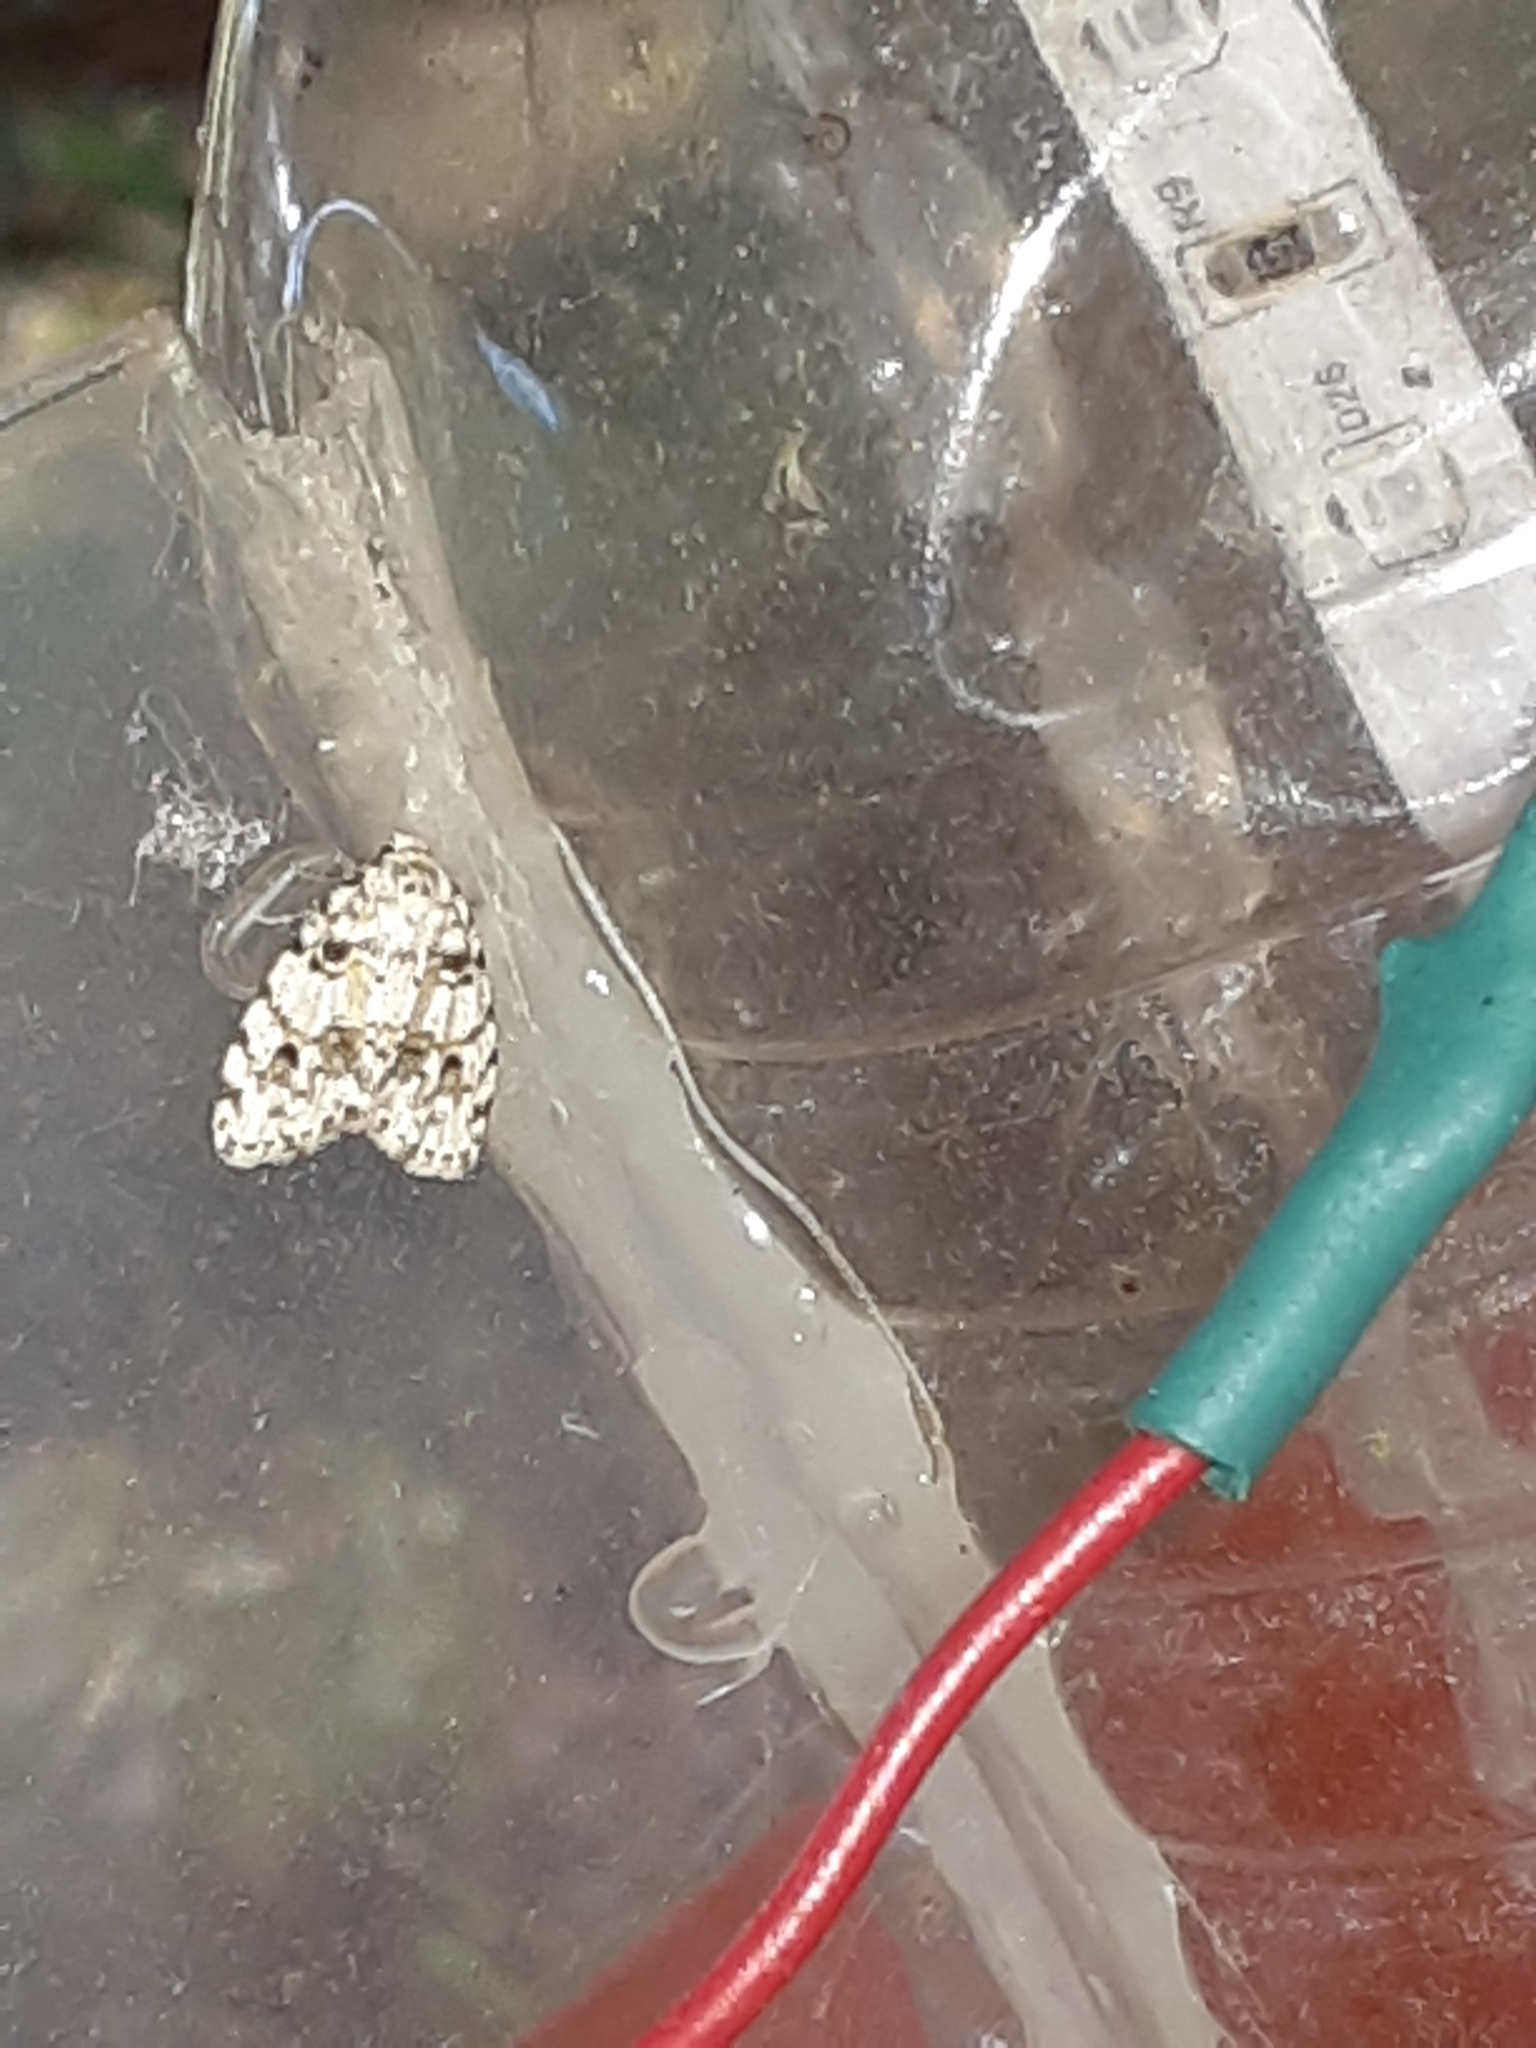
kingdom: Animalia
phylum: Arthropoda
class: Insecta
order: Lepidoptera
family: Erebidae
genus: Clemensia
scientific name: Clemensia ochreata
